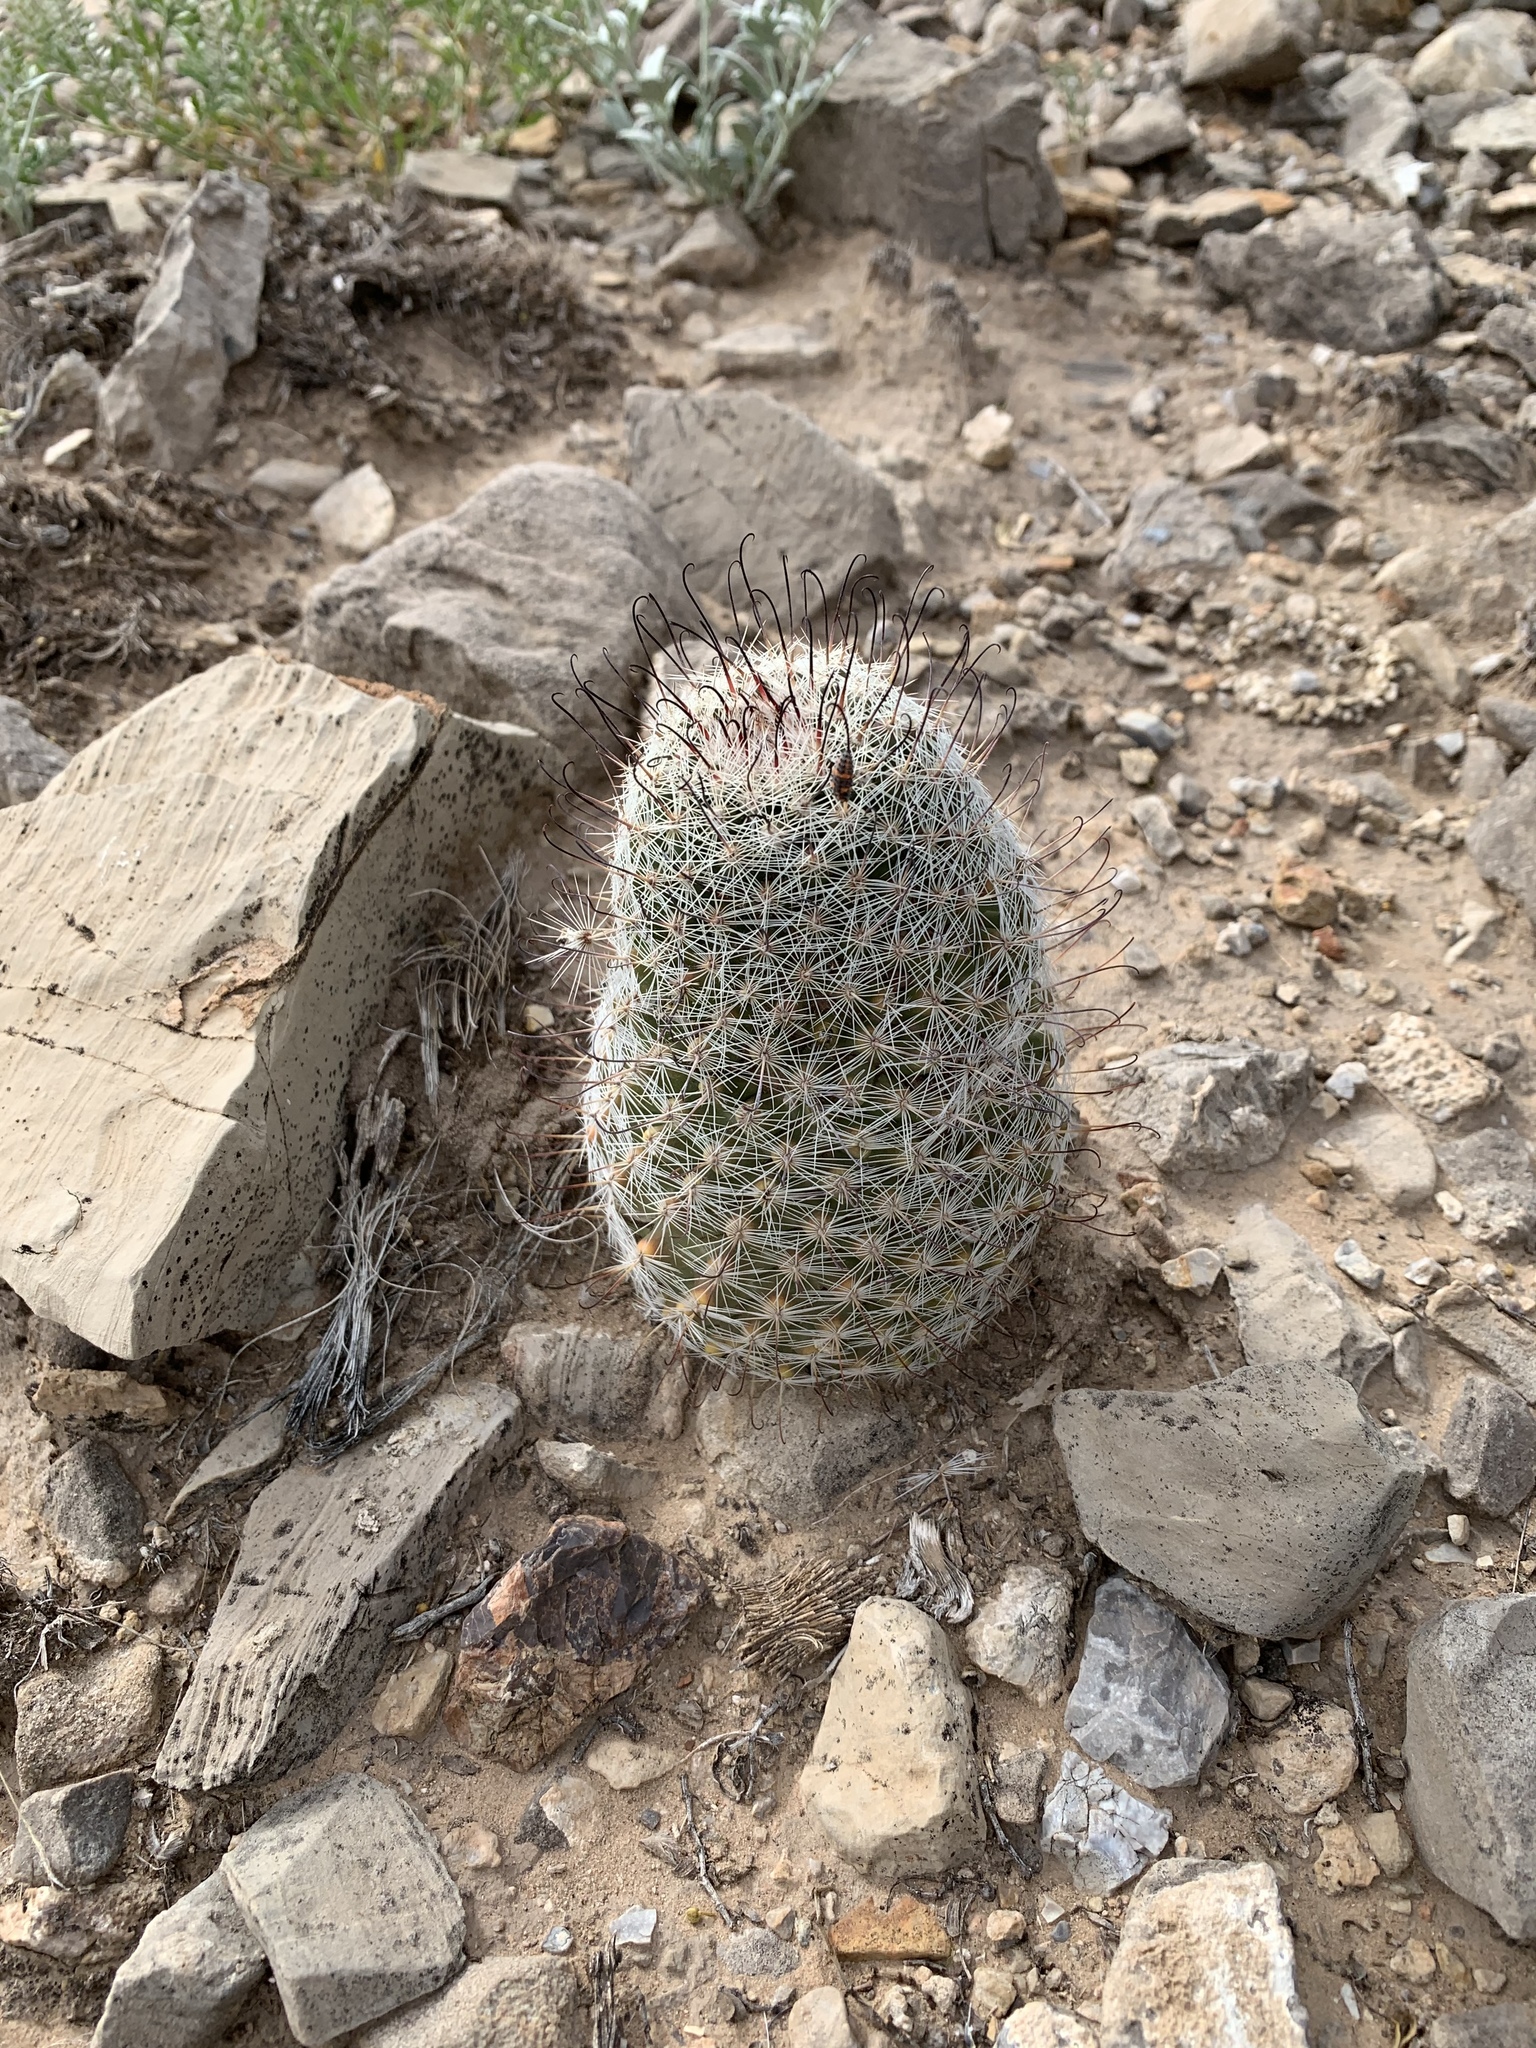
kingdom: Plantae
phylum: Tracheophyta
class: Magnoliopsida
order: Caryophyllales
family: Cactaceae
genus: Cochemiea
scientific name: Cochemiea grahamii
